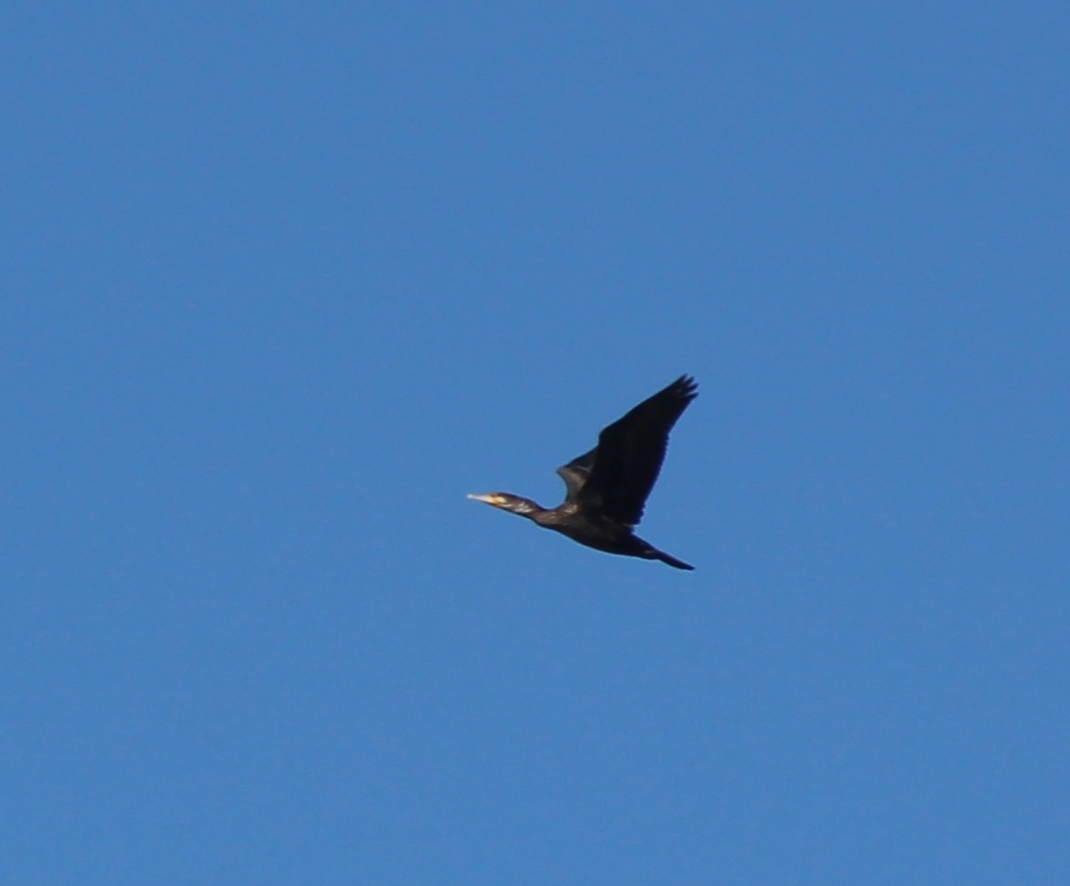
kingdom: Animalia
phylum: Chordata
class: Aves
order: Suliformes
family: Phalacrocoracidae
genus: Phalacrocorax
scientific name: Phalacrocorax carbo
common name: Great cormorant
